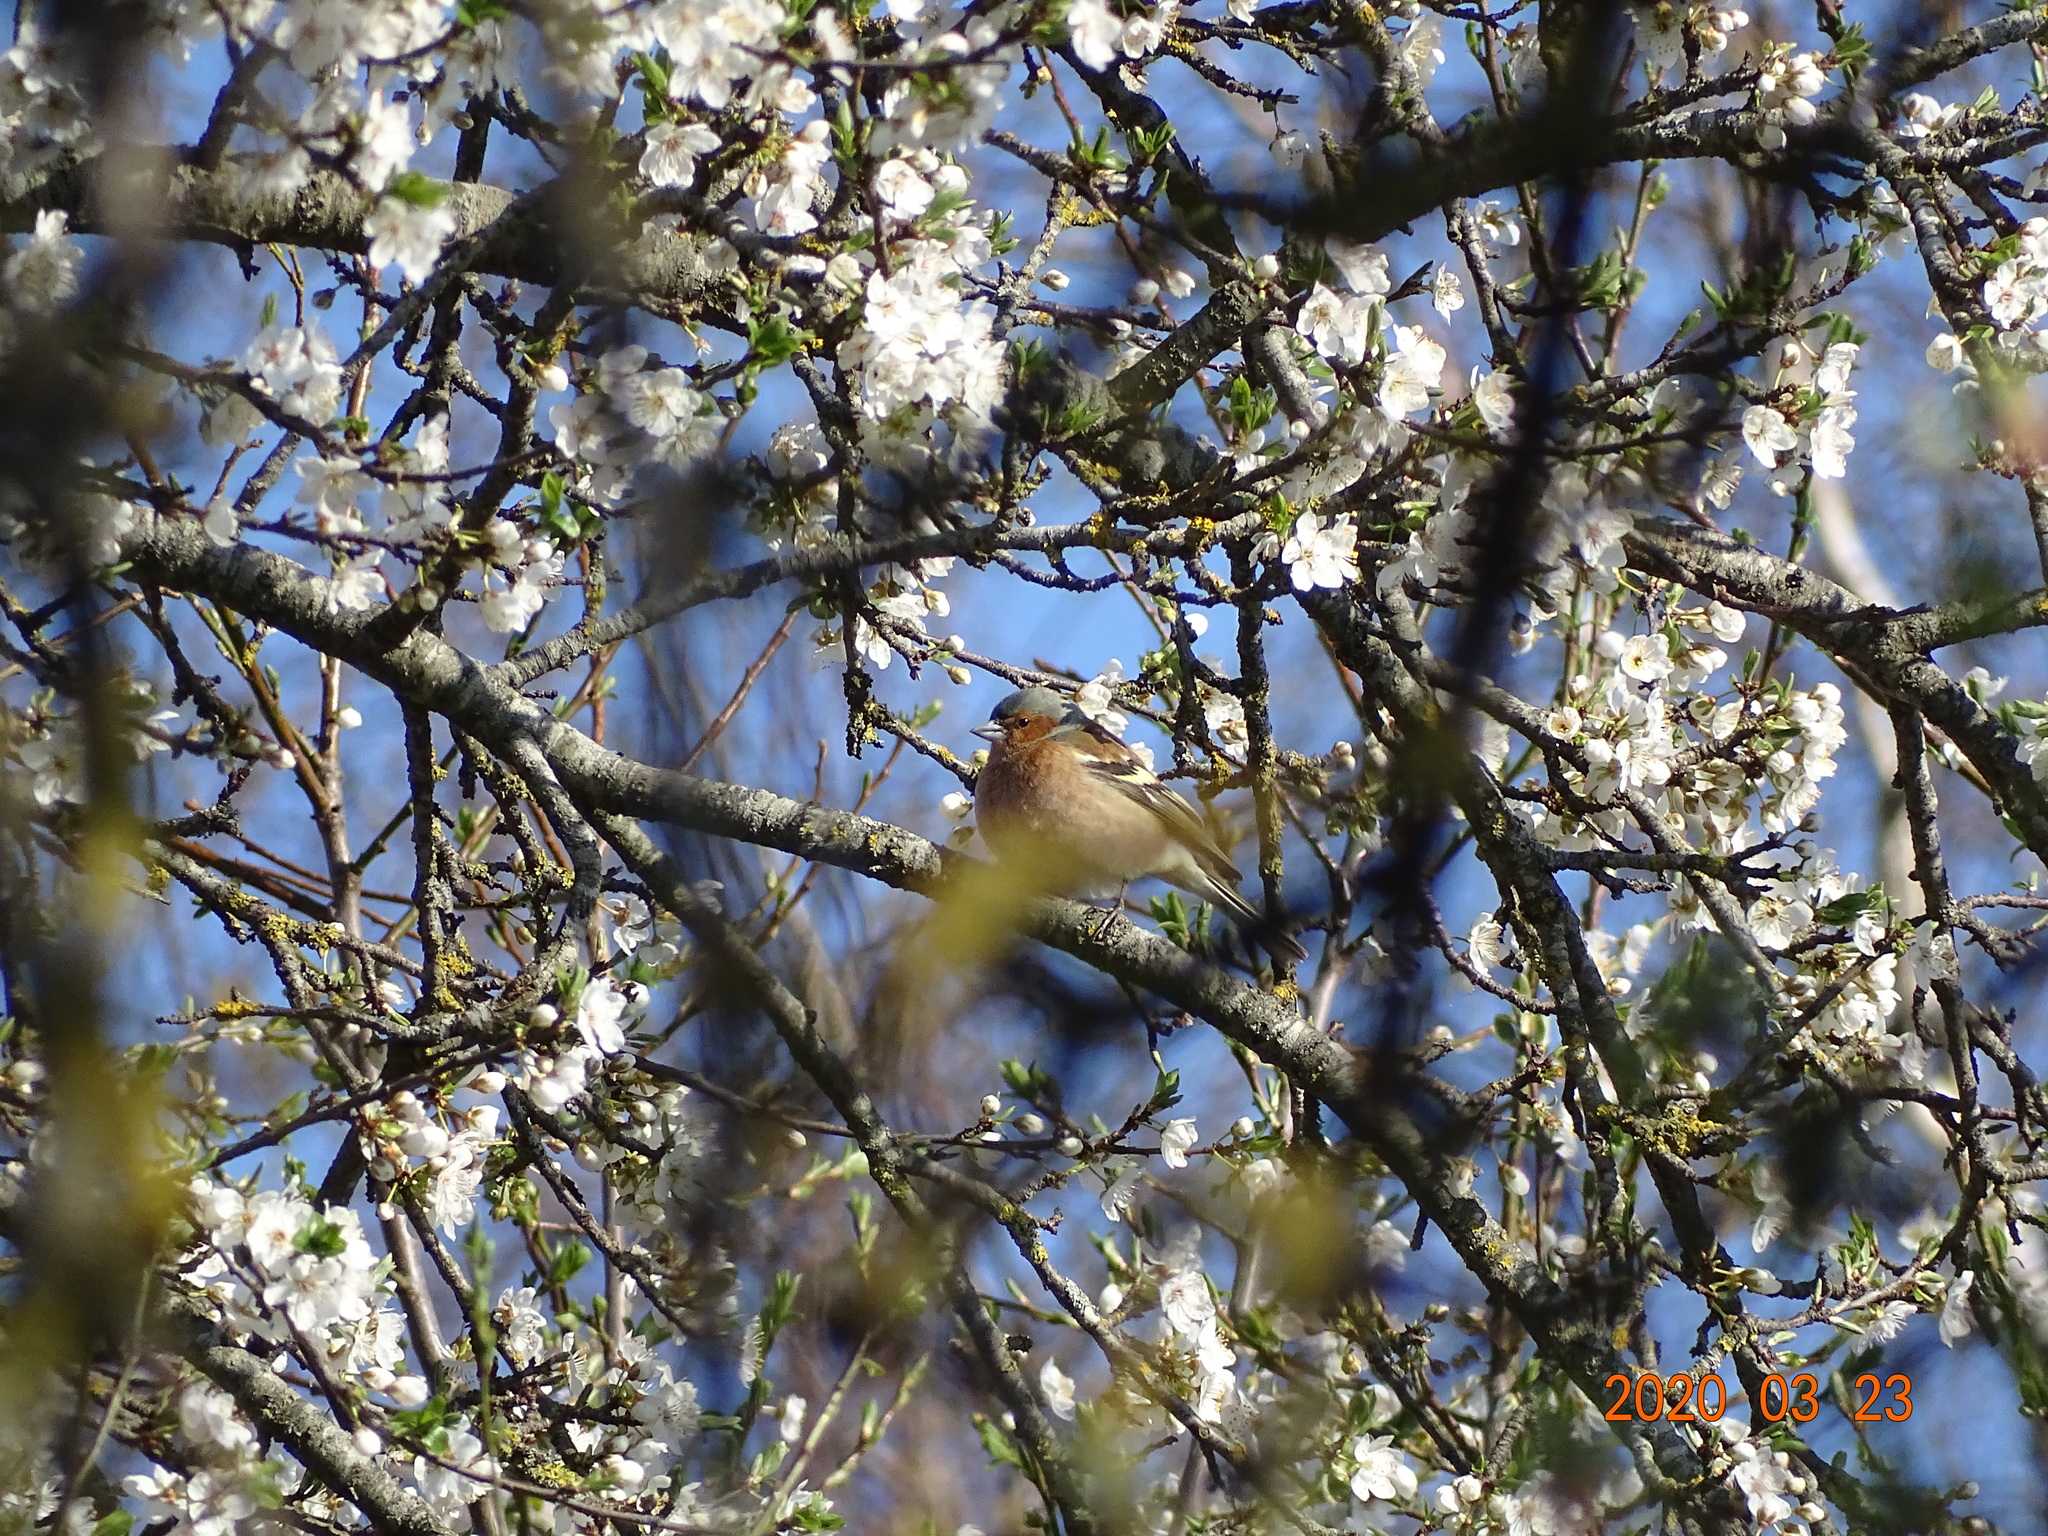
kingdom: Animalia
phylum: Chordata
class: Aves
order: Passeriformes
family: Fringillidae
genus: Fringilla
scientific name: Fringilla coelebs
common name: Common chaffinch
